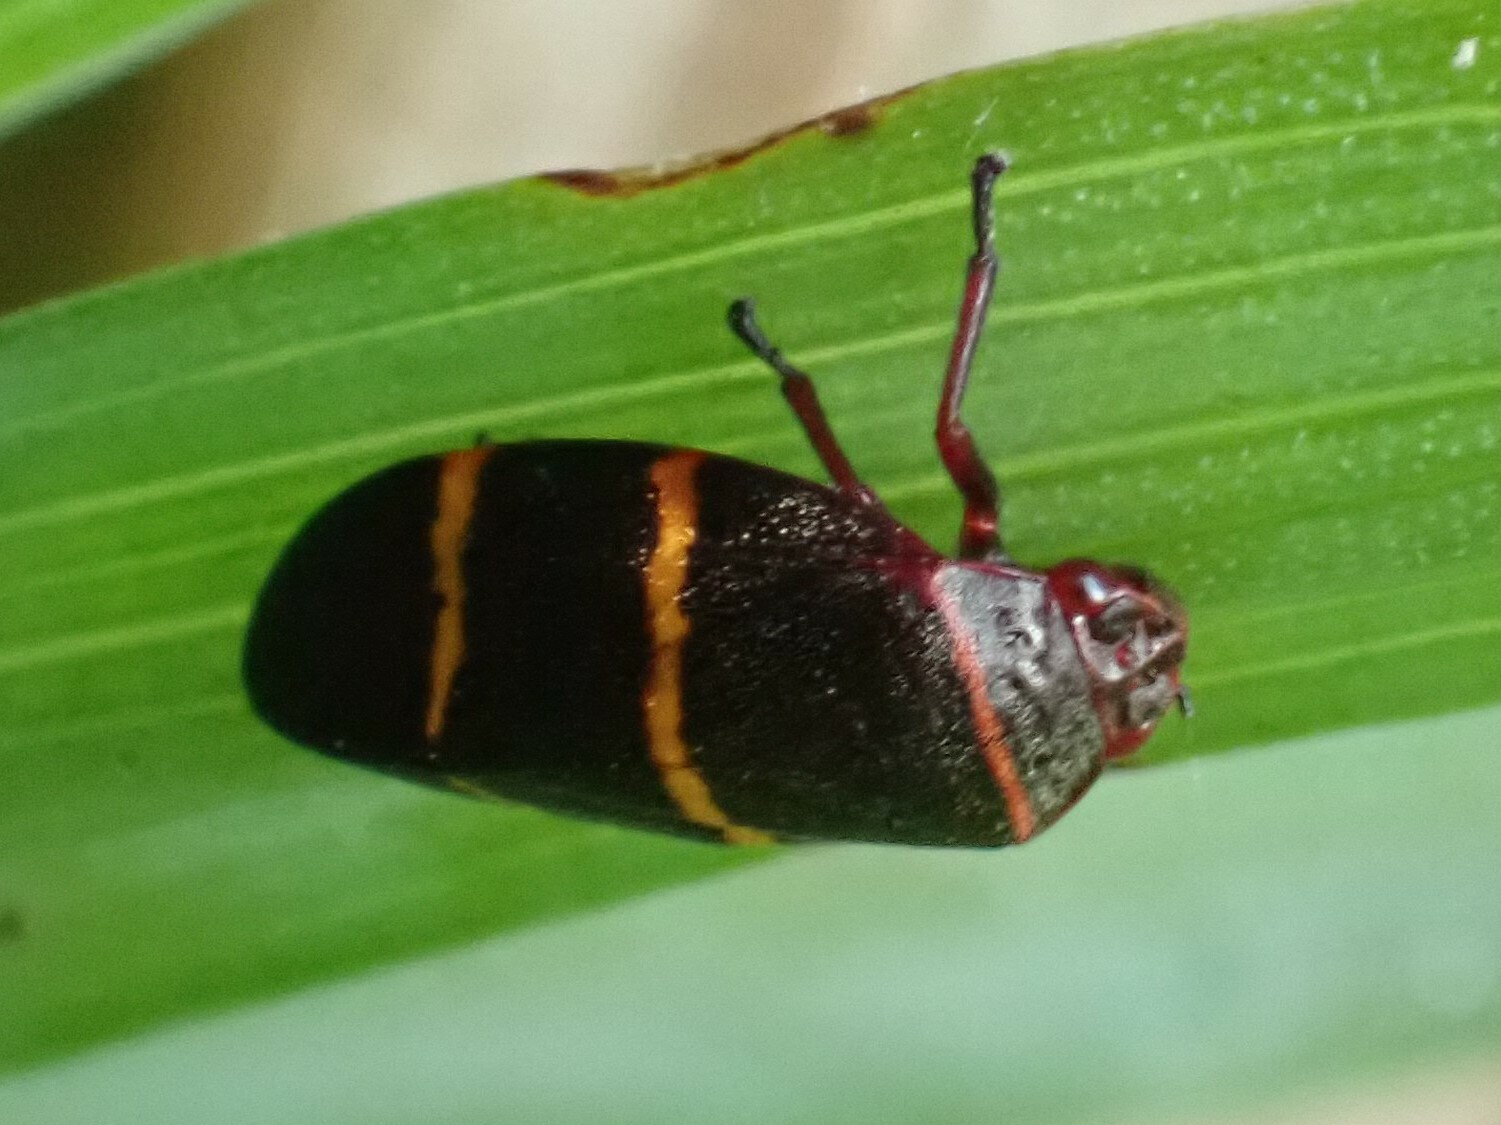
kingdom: Animalia
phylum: Arthropoda
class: Insecta
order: Hemiptera
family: Cercopidae
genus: Prosapia
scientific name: Prosapia bicincta
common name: Twolined spittlebug
